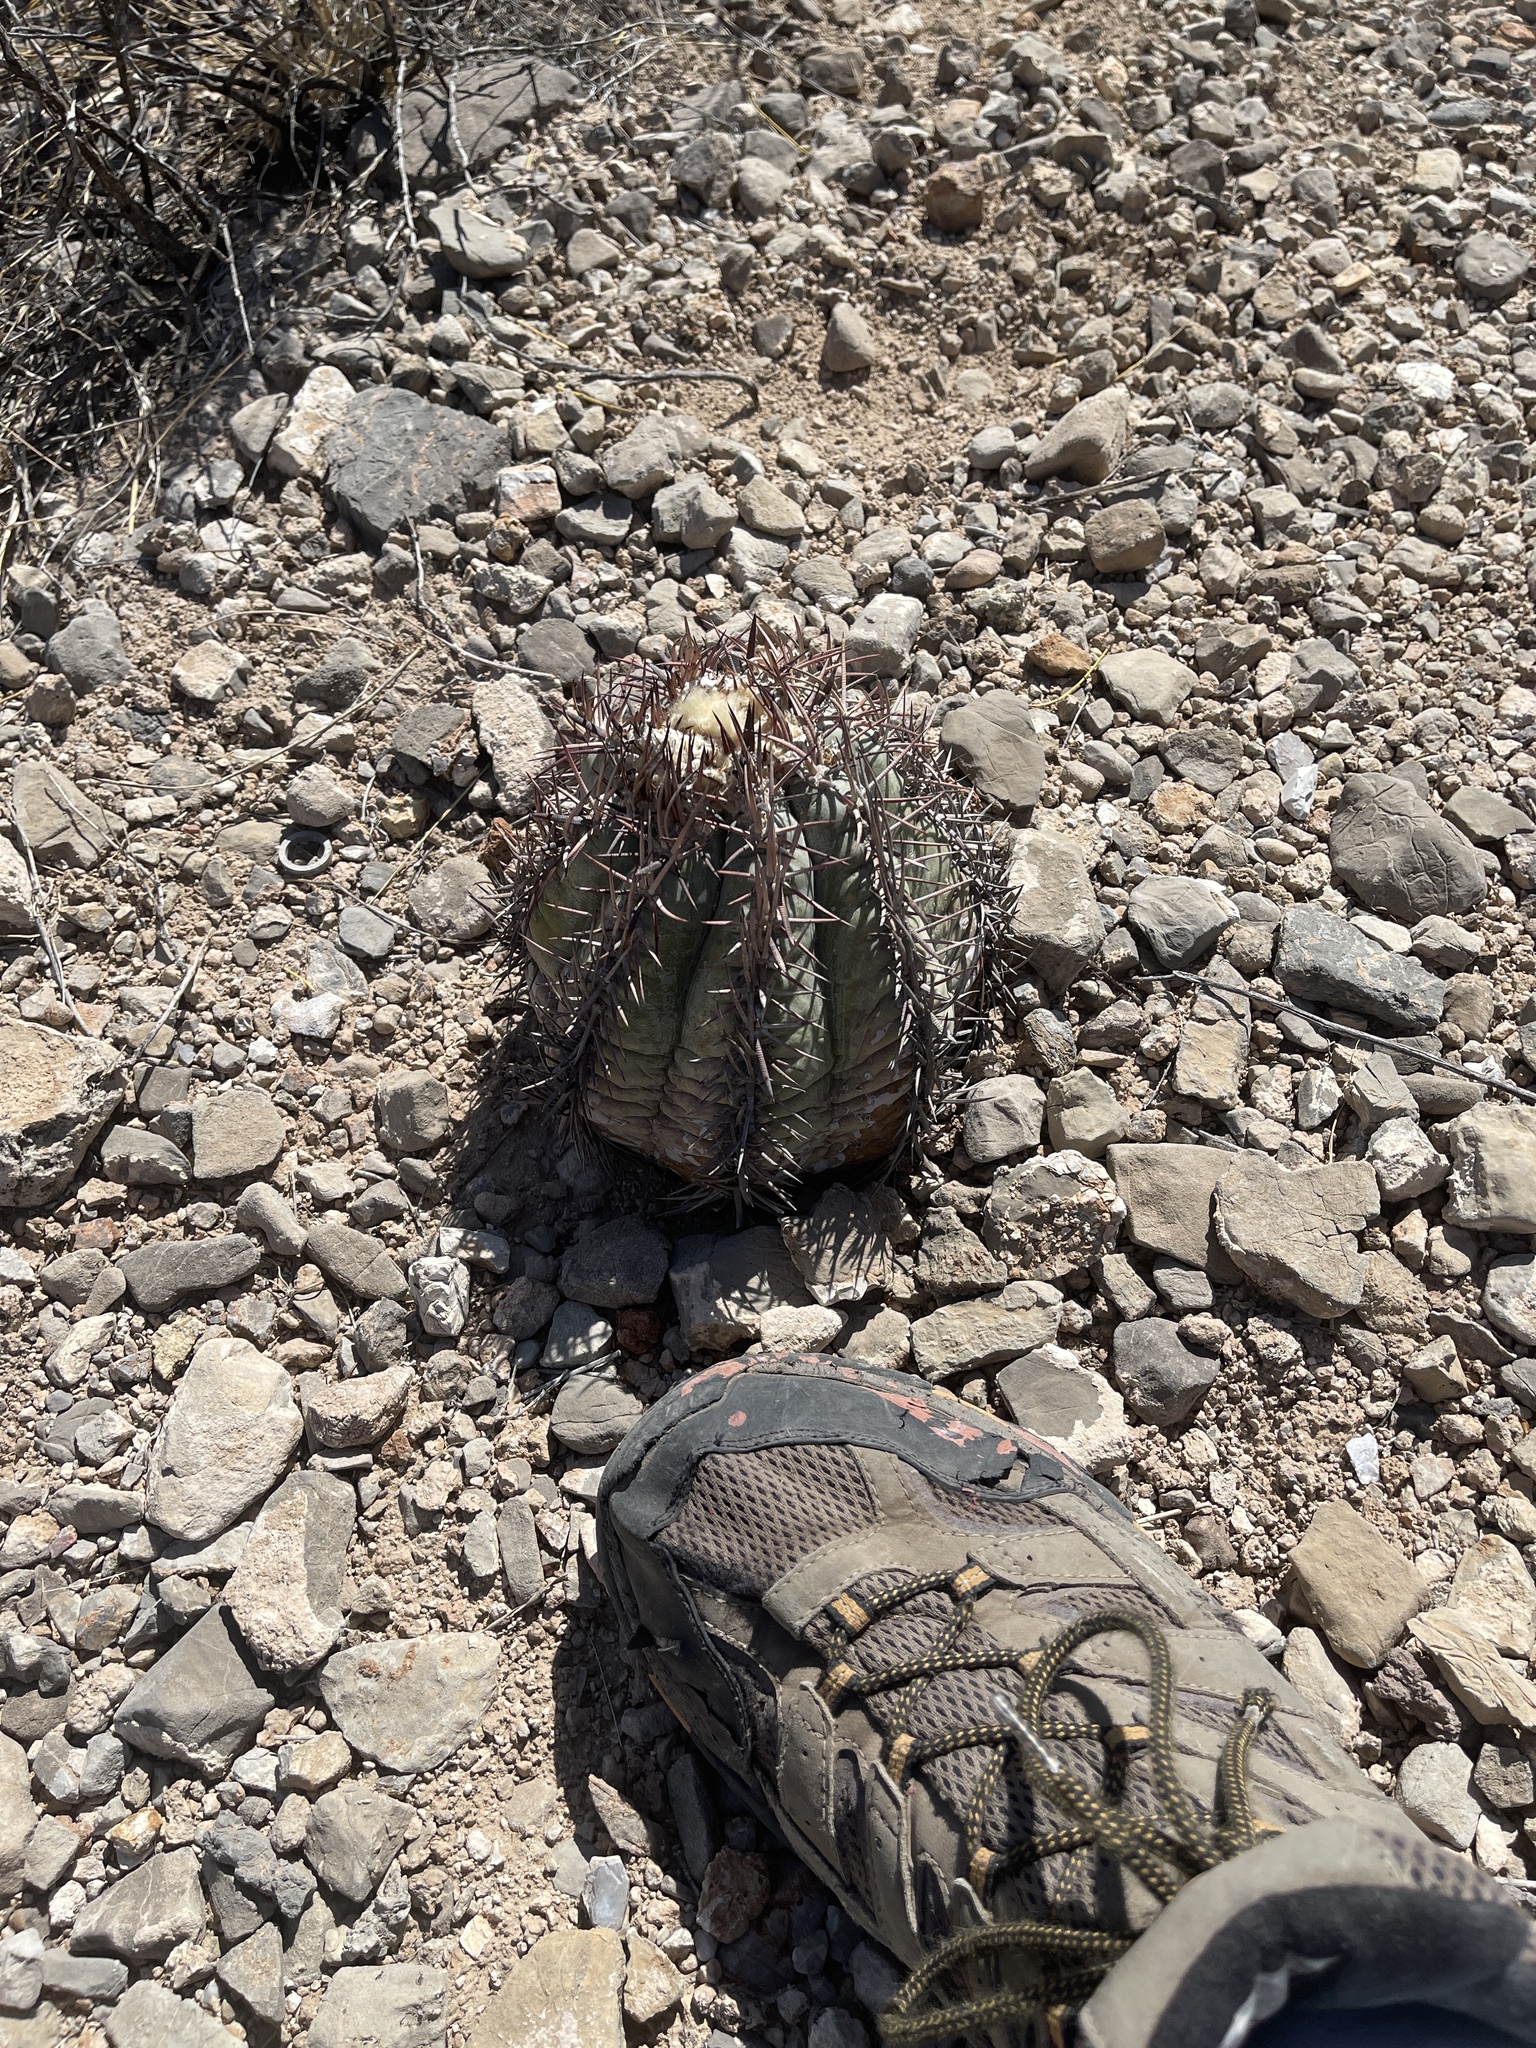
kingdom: Plantae
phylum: Tracheophyta
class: Magnoliopsida
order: Caryophyllales
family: Cactaceae
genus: Echinocactus
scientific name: Echinocactus horizonthalonius
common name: Devilshead
